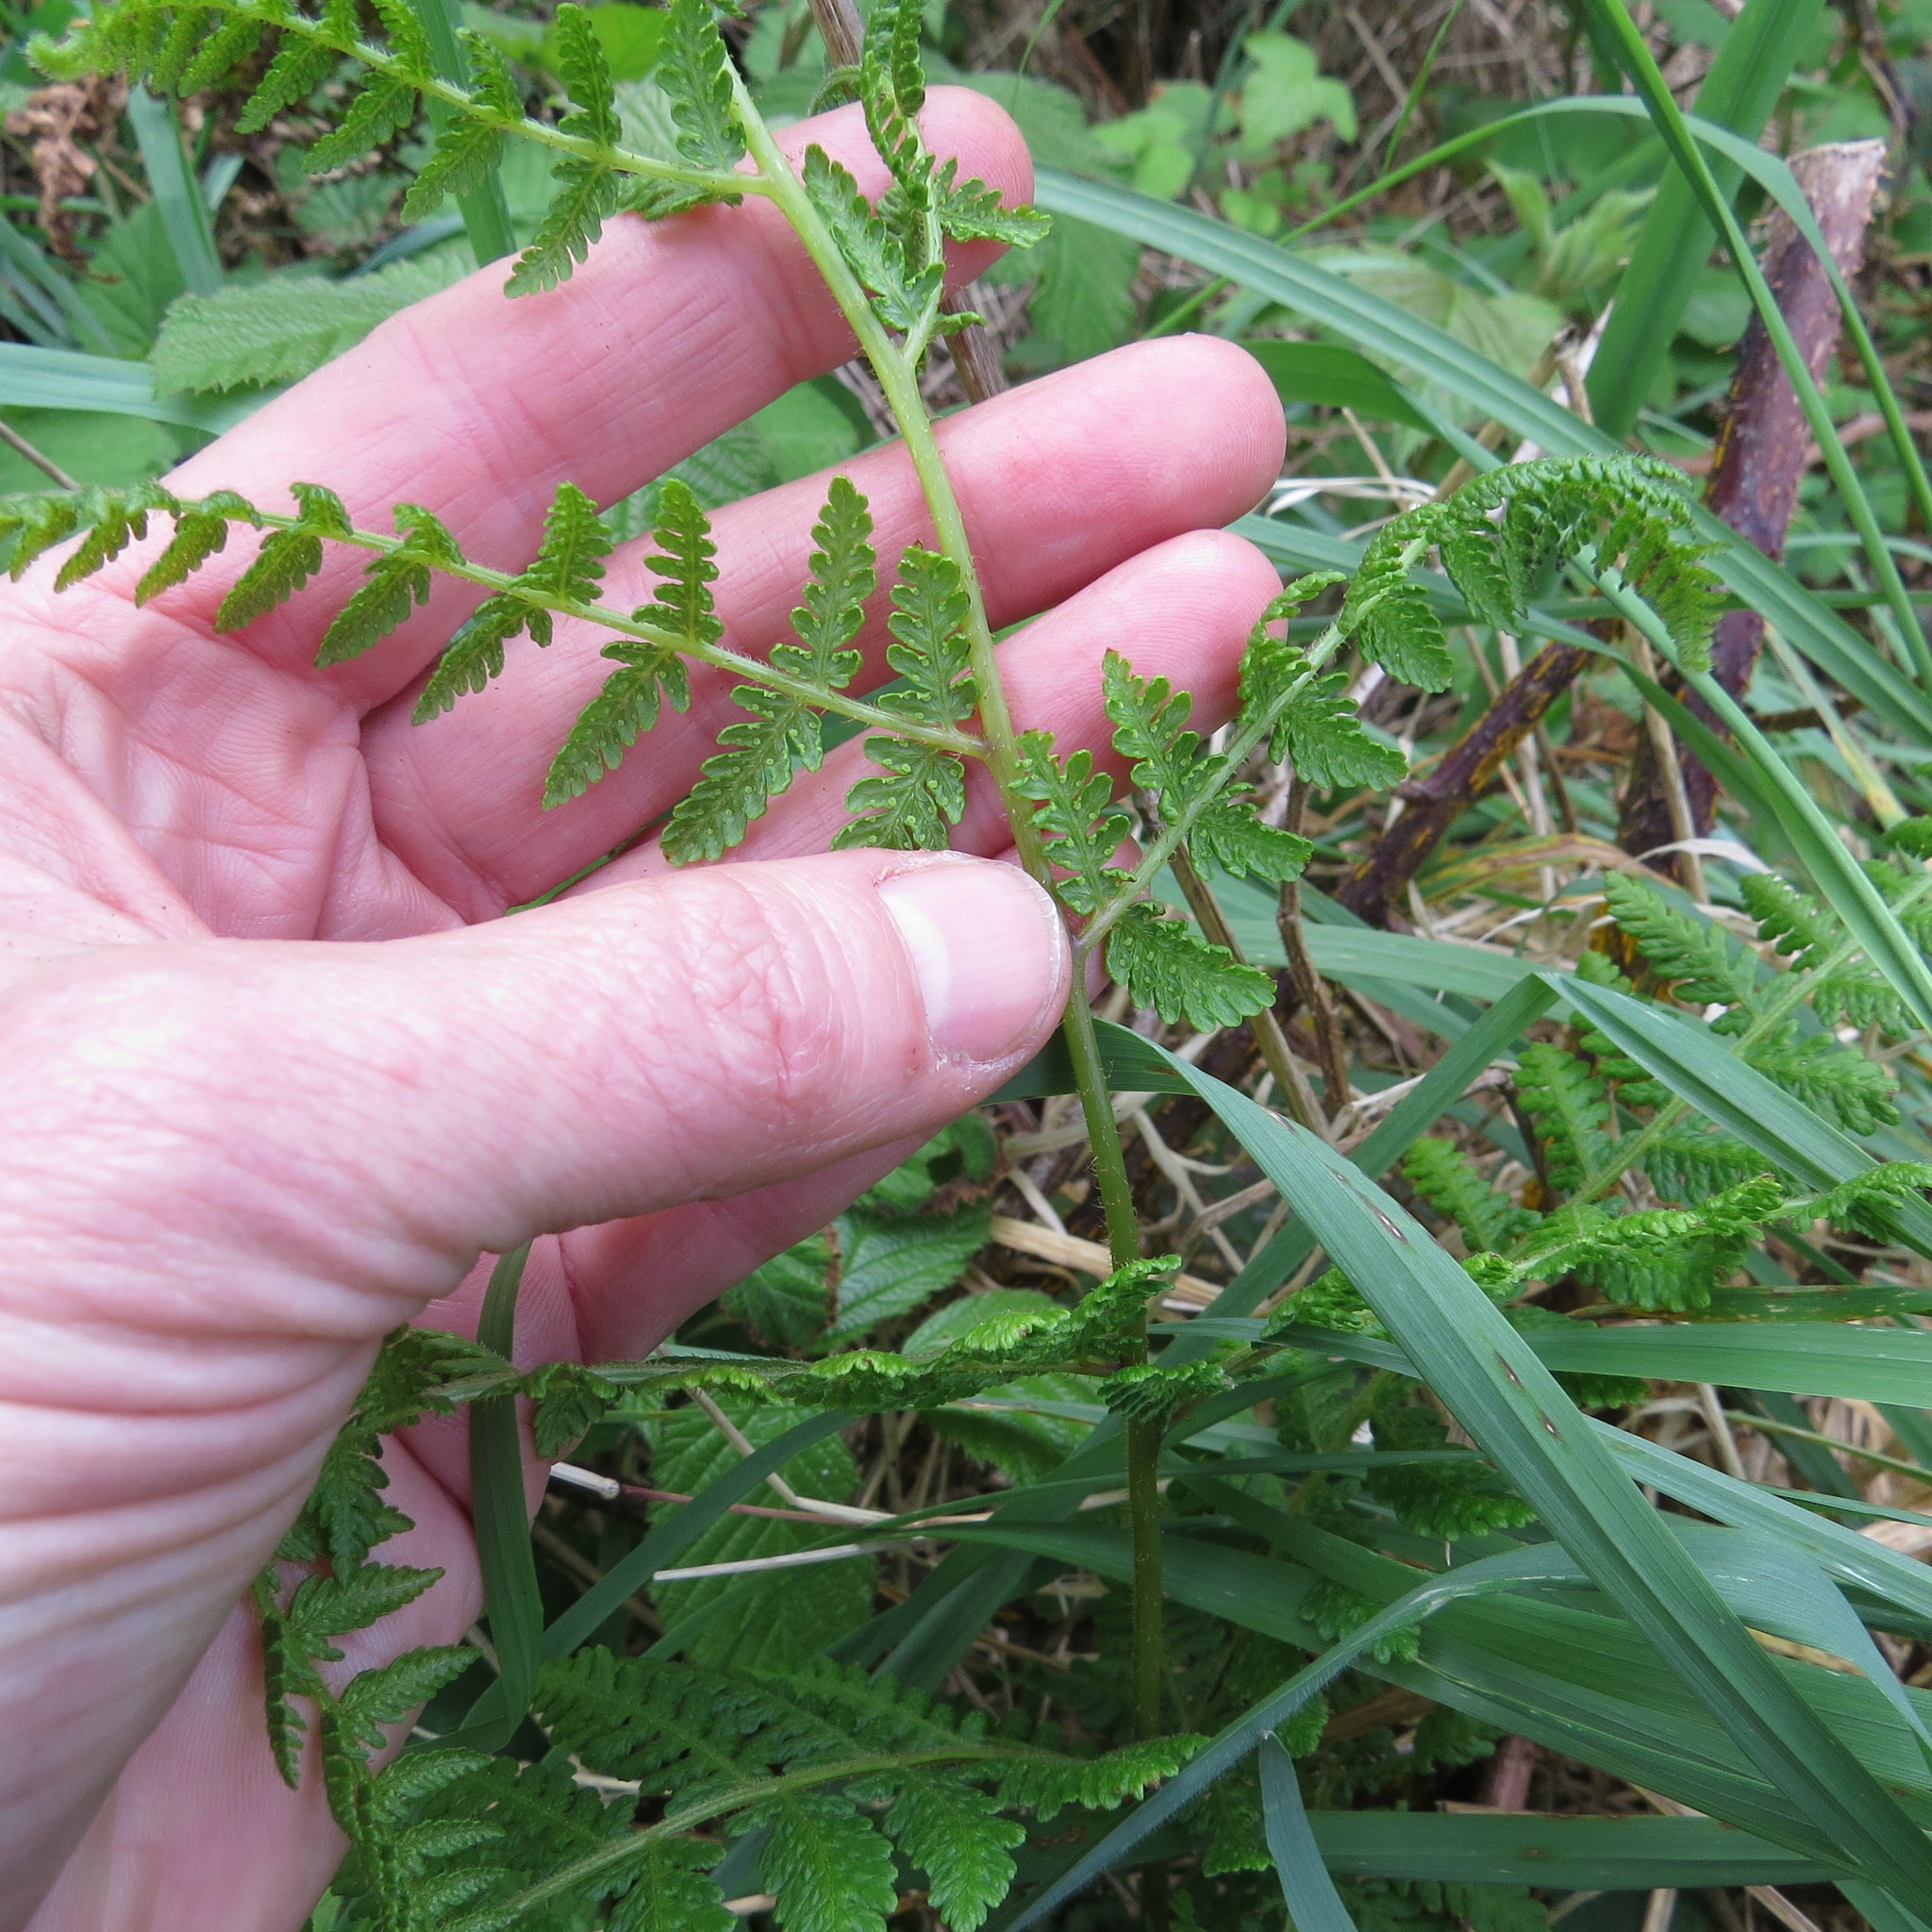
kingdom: Plantae
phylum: Tracheophyta
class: Polypodiopsida
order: Polypodiales
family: Dennstaedtiaceae
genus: Hypolepis
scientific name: Hypolepis ambigua
